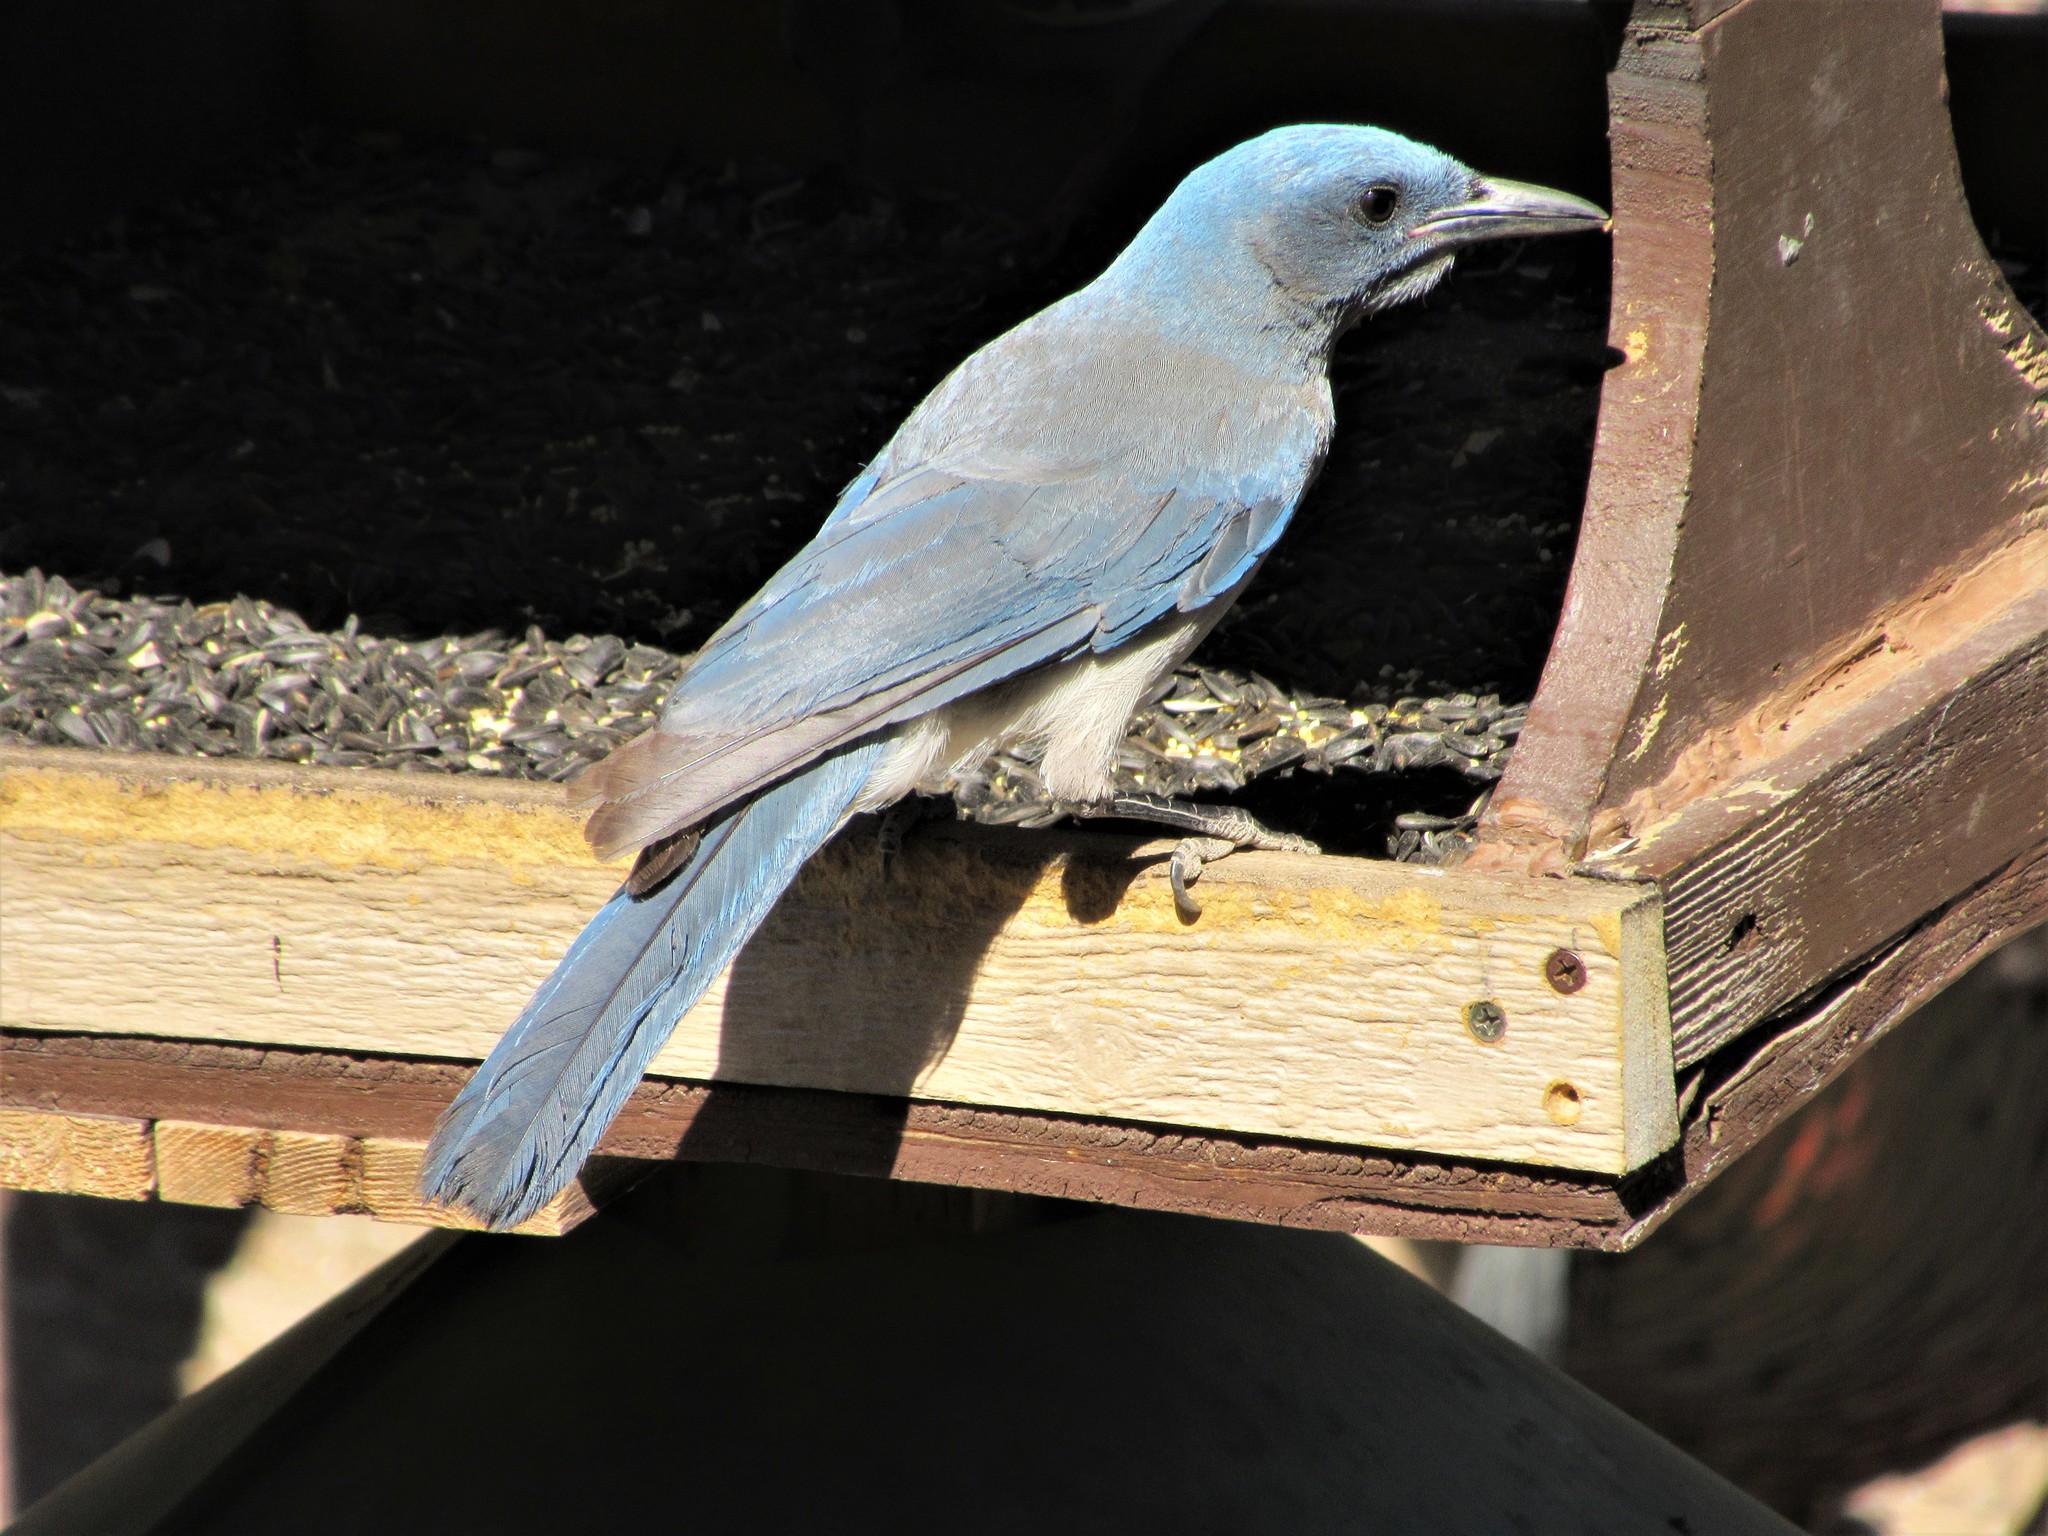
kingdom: Animalia
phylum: Chordata
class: Aves
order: Passeriformes
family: Corvidae
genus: Aphelocoma
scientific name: Aphelocoma wollweberi
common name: Mexican jay
